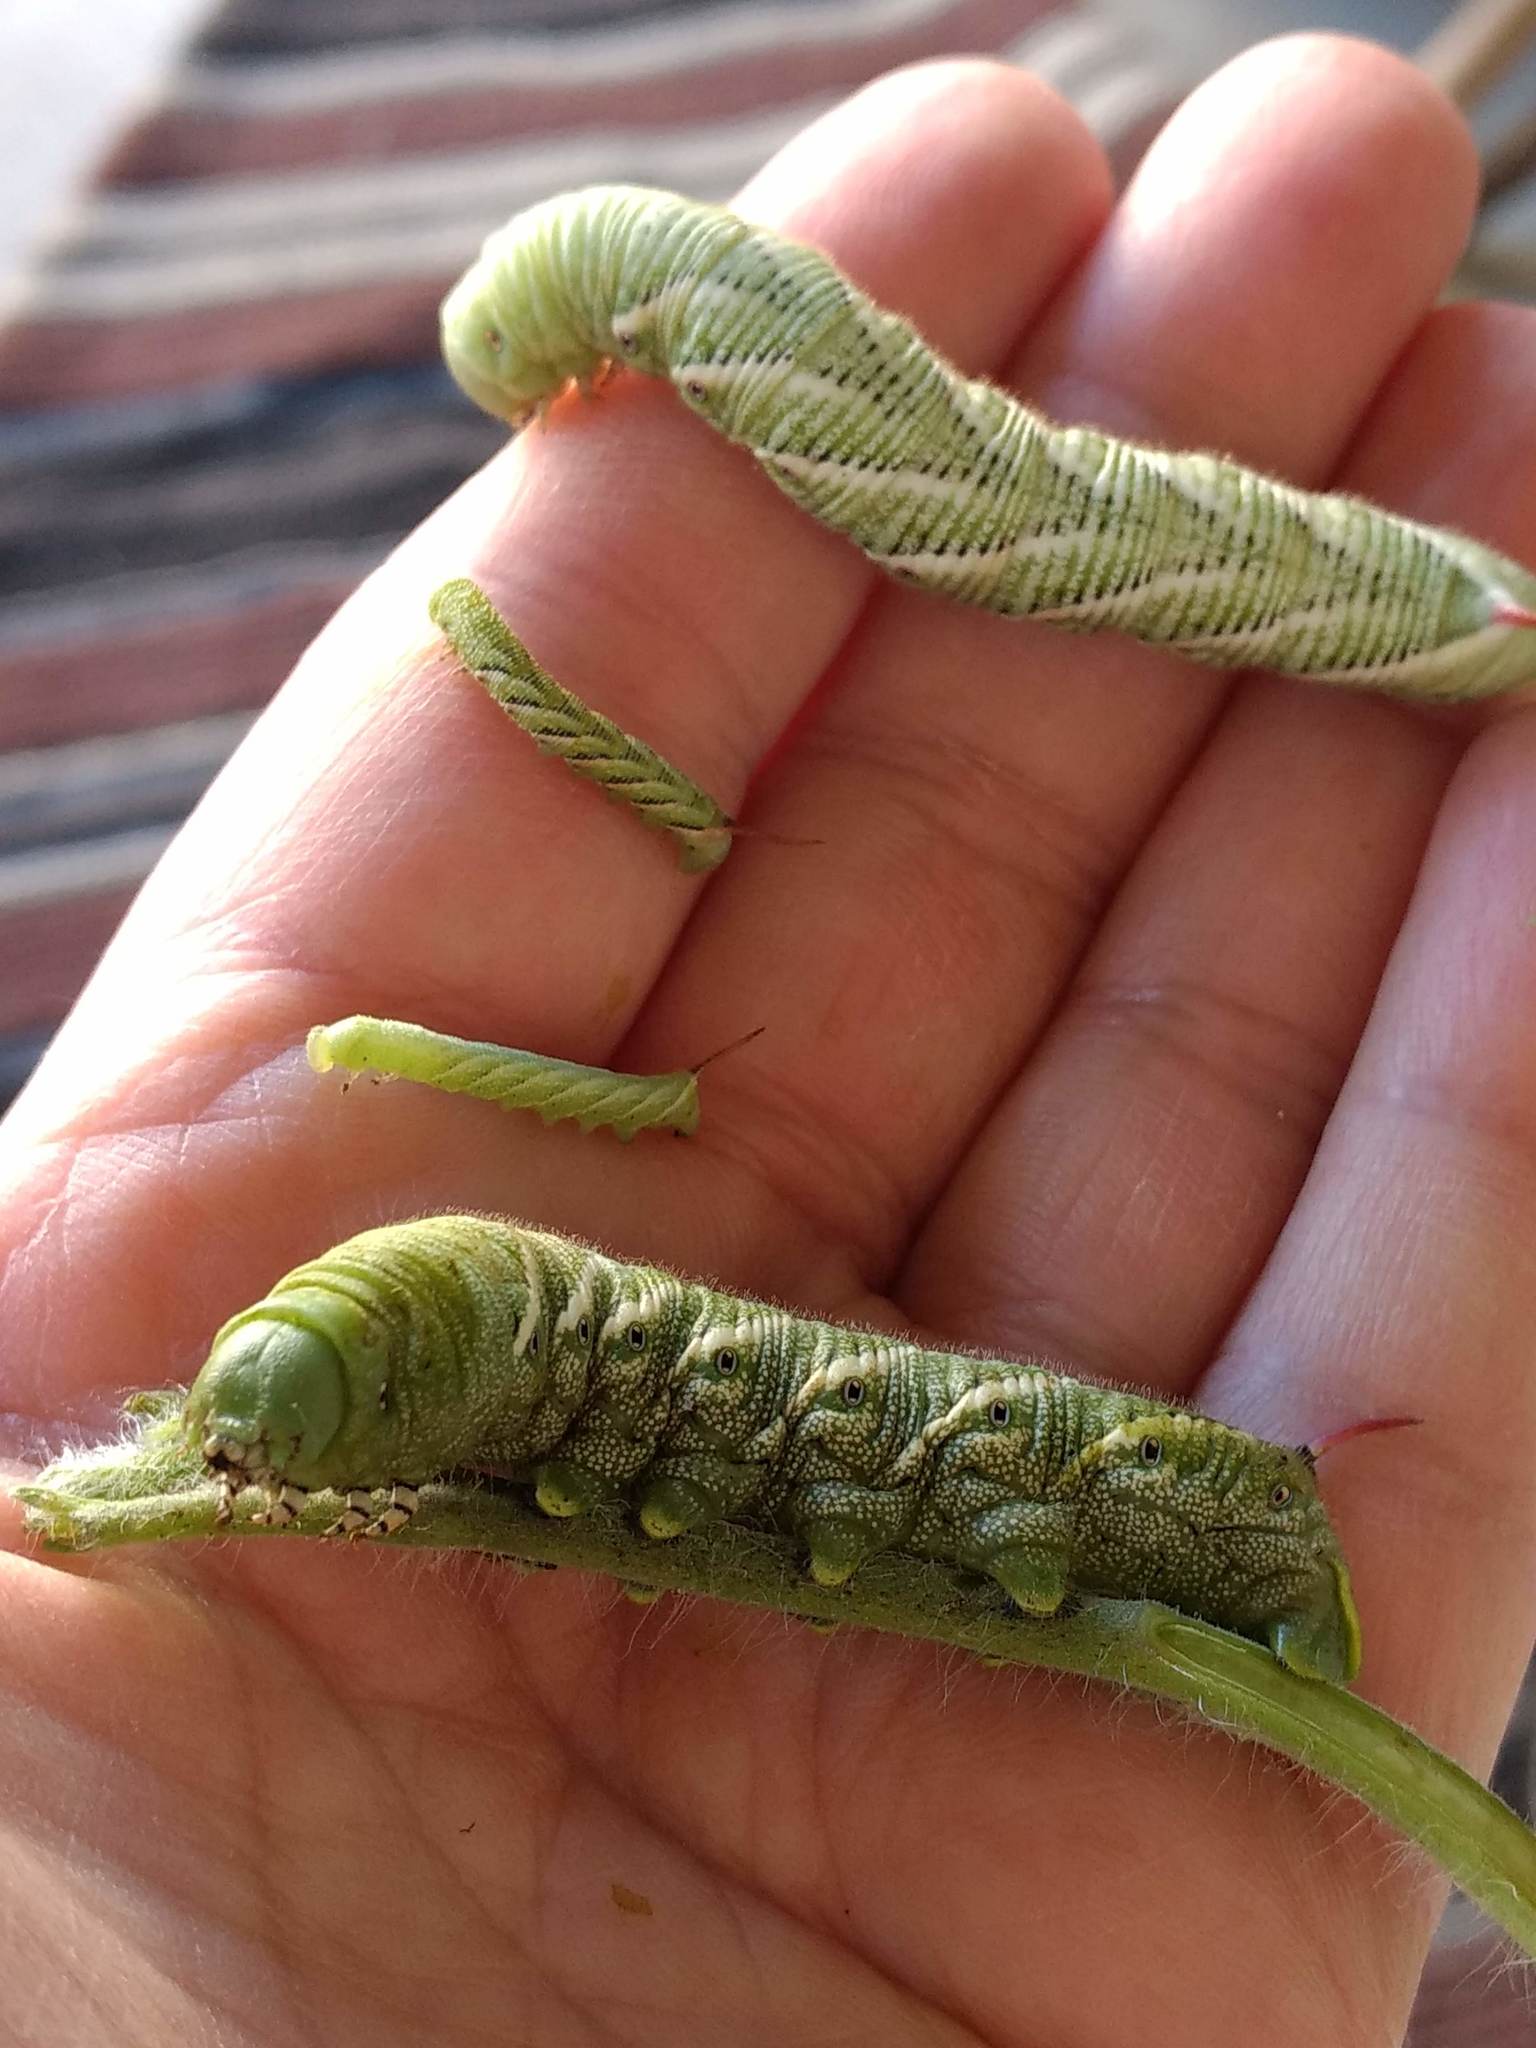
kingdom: Animalia
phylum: Arthropoda
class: Insecta
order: Lepidoptera
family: Sphingidae
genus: Manduca
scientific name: Manduca sexta
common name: Carolina sphinx
